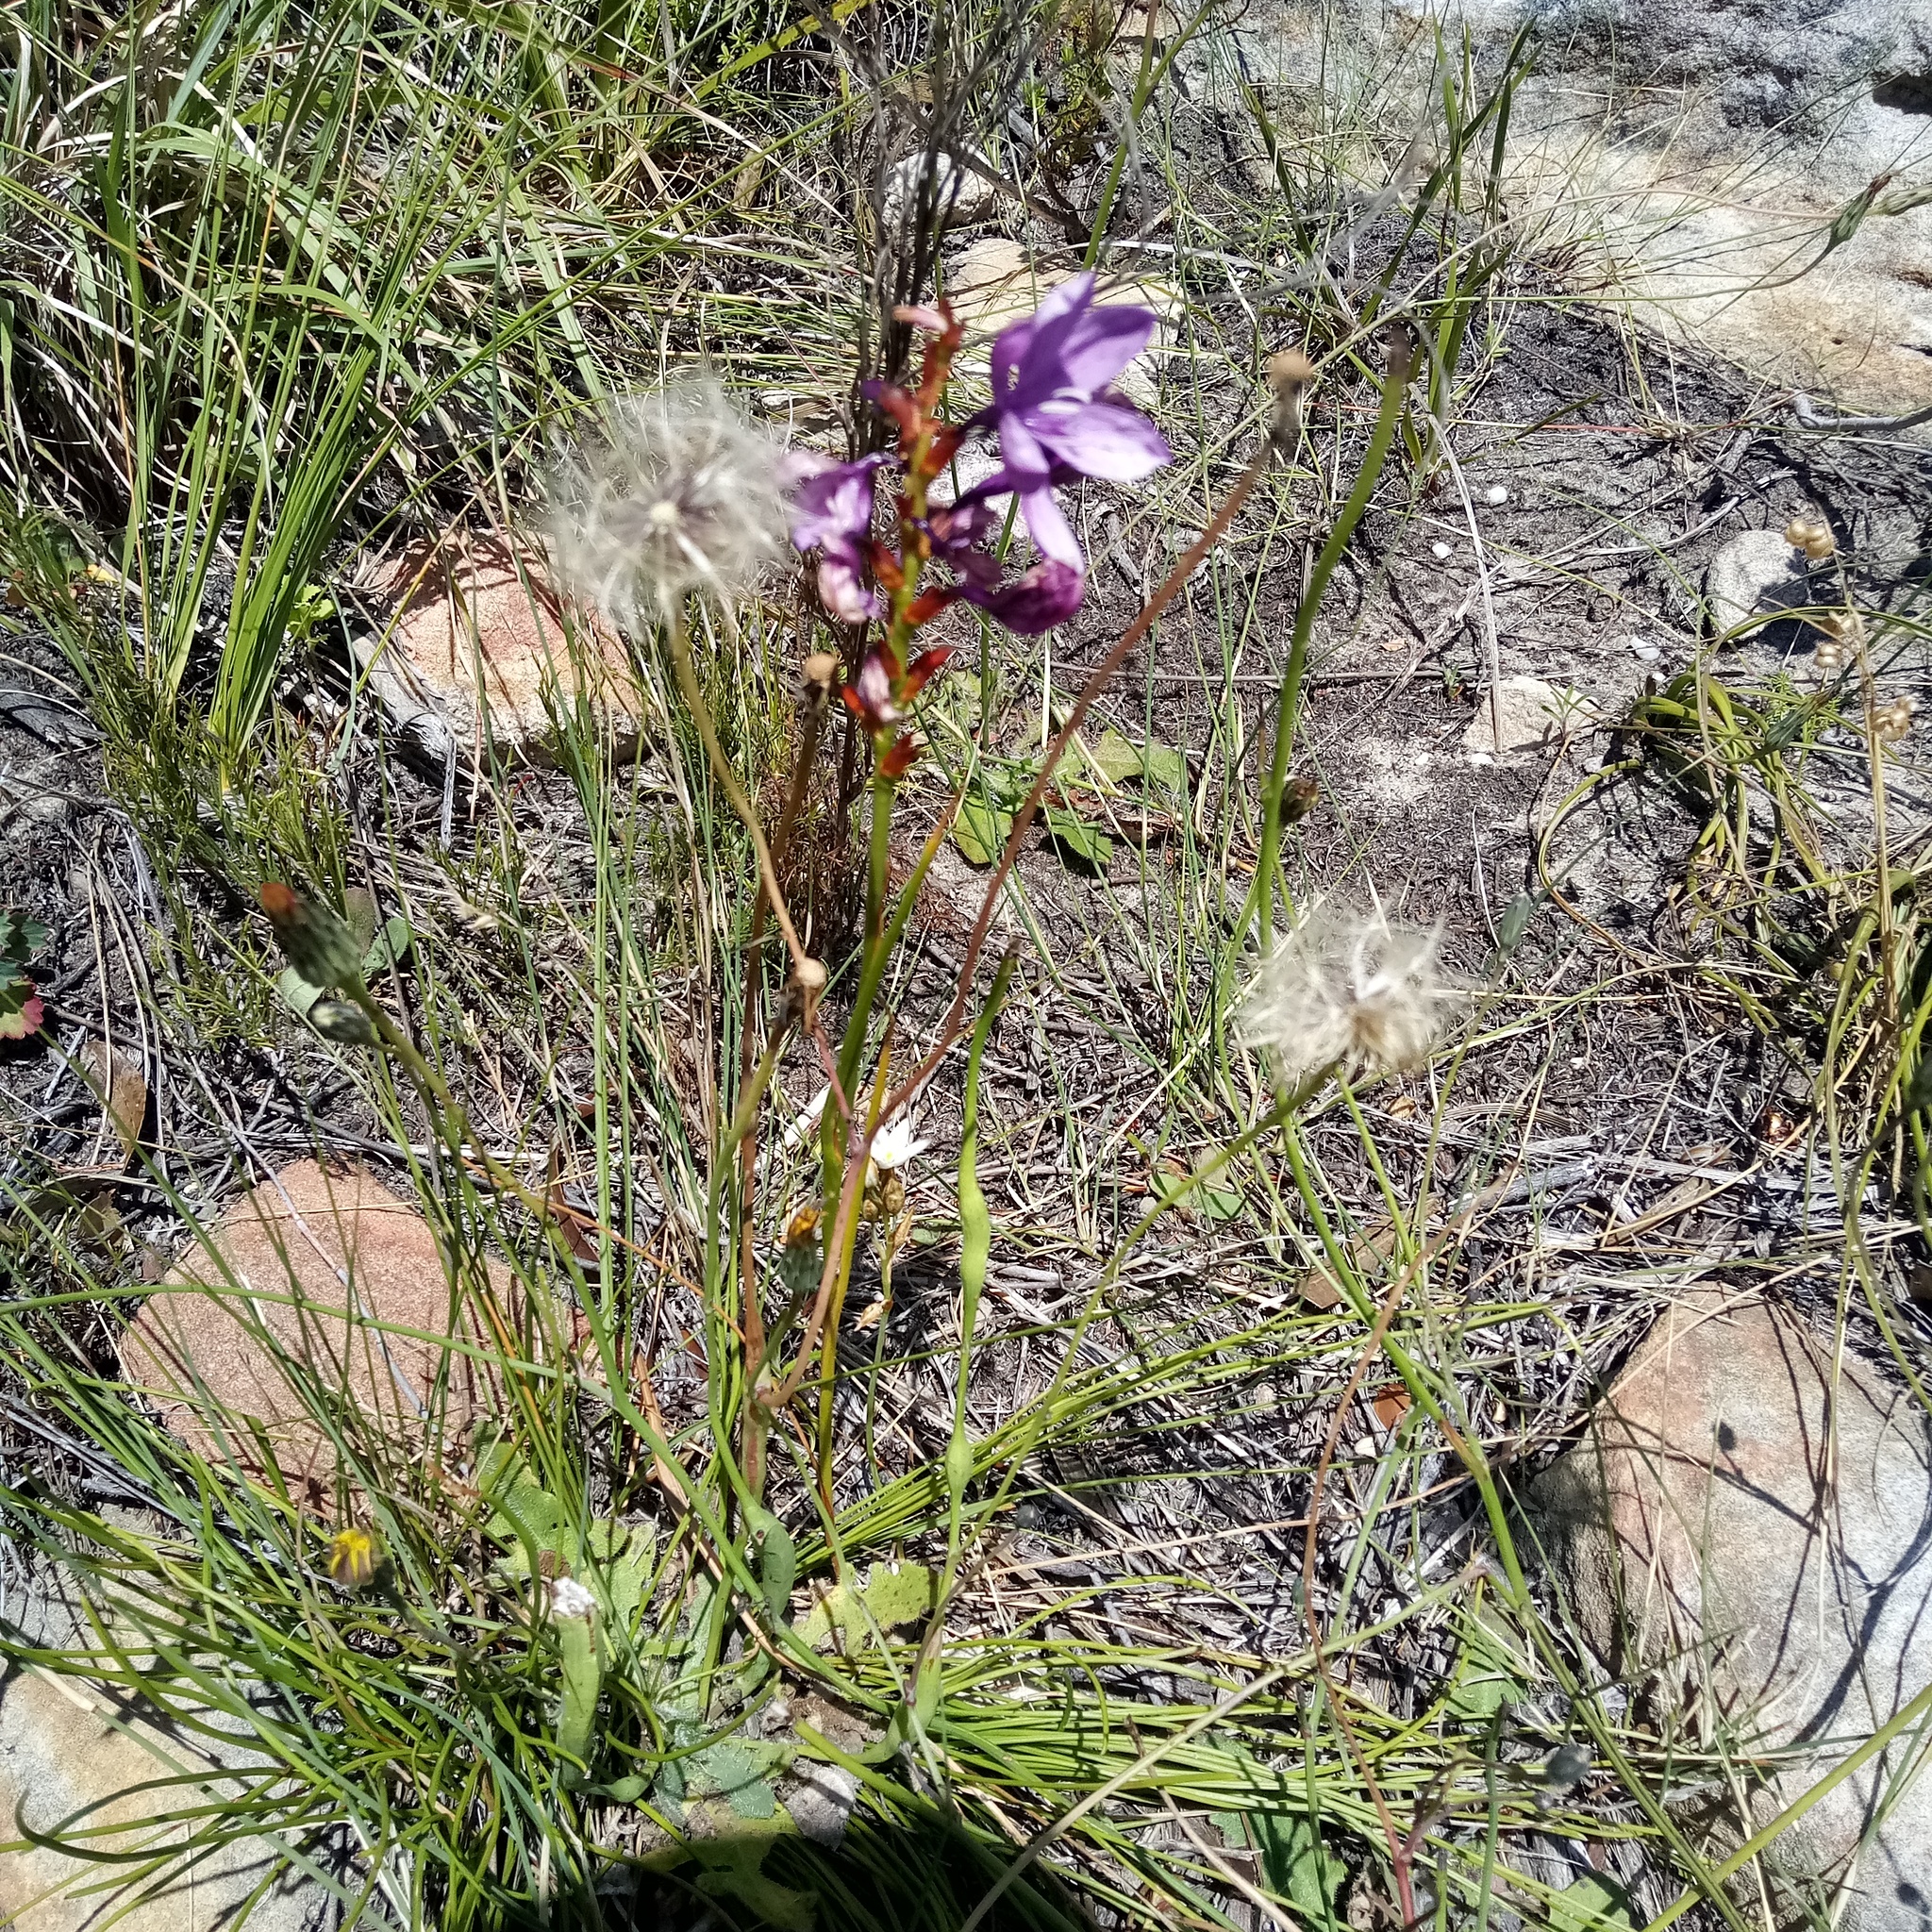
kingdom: Plantae
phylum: Tracheophyta
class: Liliopsida
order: Asparagales
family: Iridaceae
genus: Thereianthus
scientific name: Thereianthus bracteolatus
